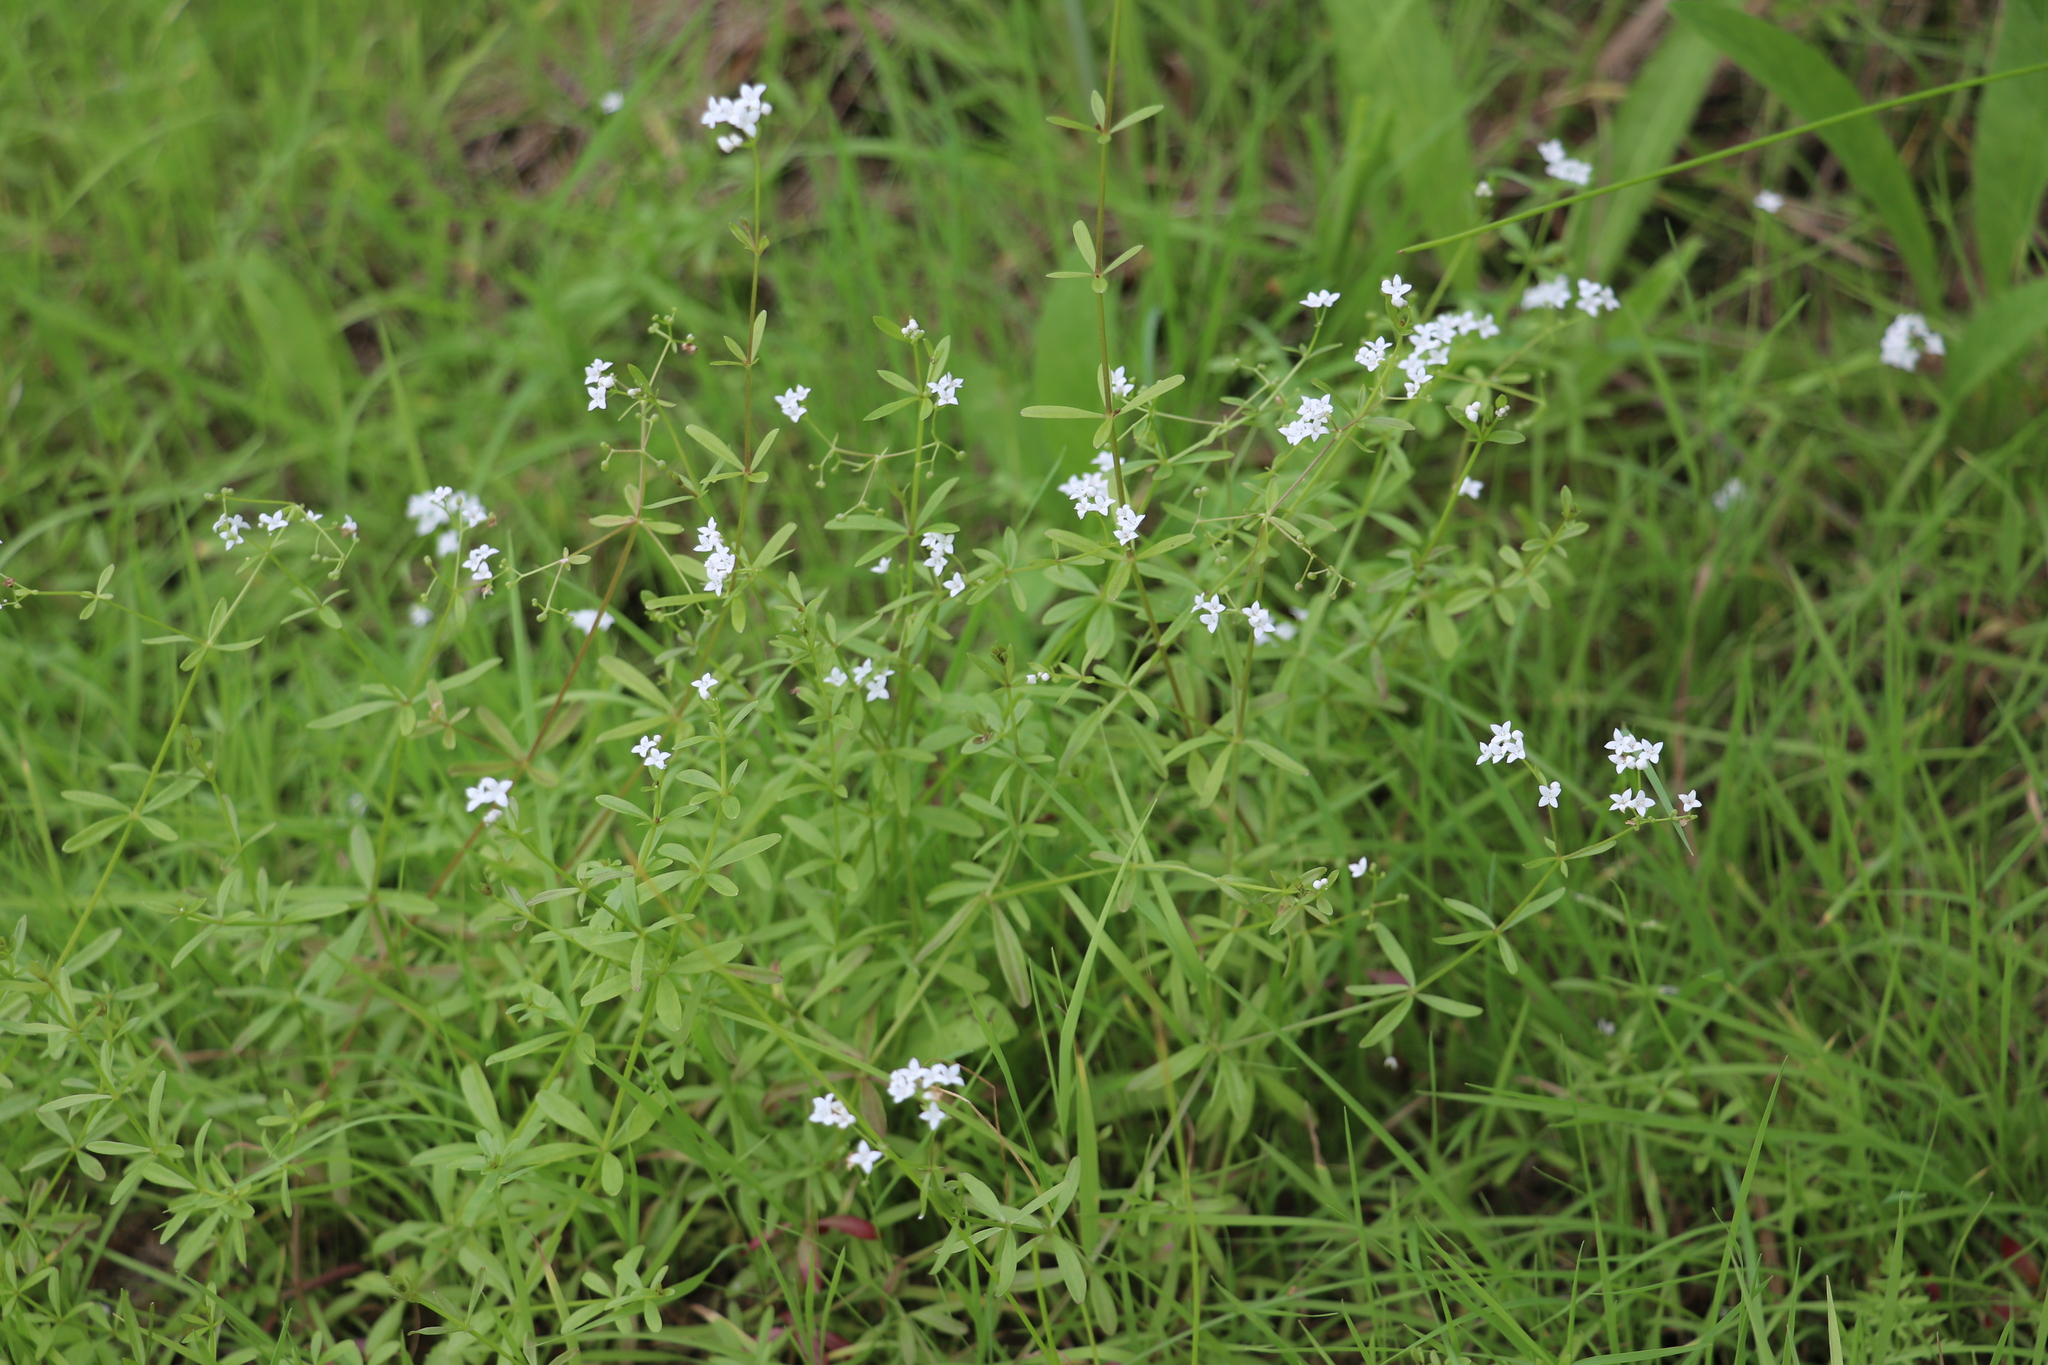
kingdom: Plantae
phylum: Tracheophyta
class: Magnoliopsida
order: Gentianales
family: Rubiaceae
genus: Galium
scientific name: Galium palustre
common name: Common marsh-bedstraw
